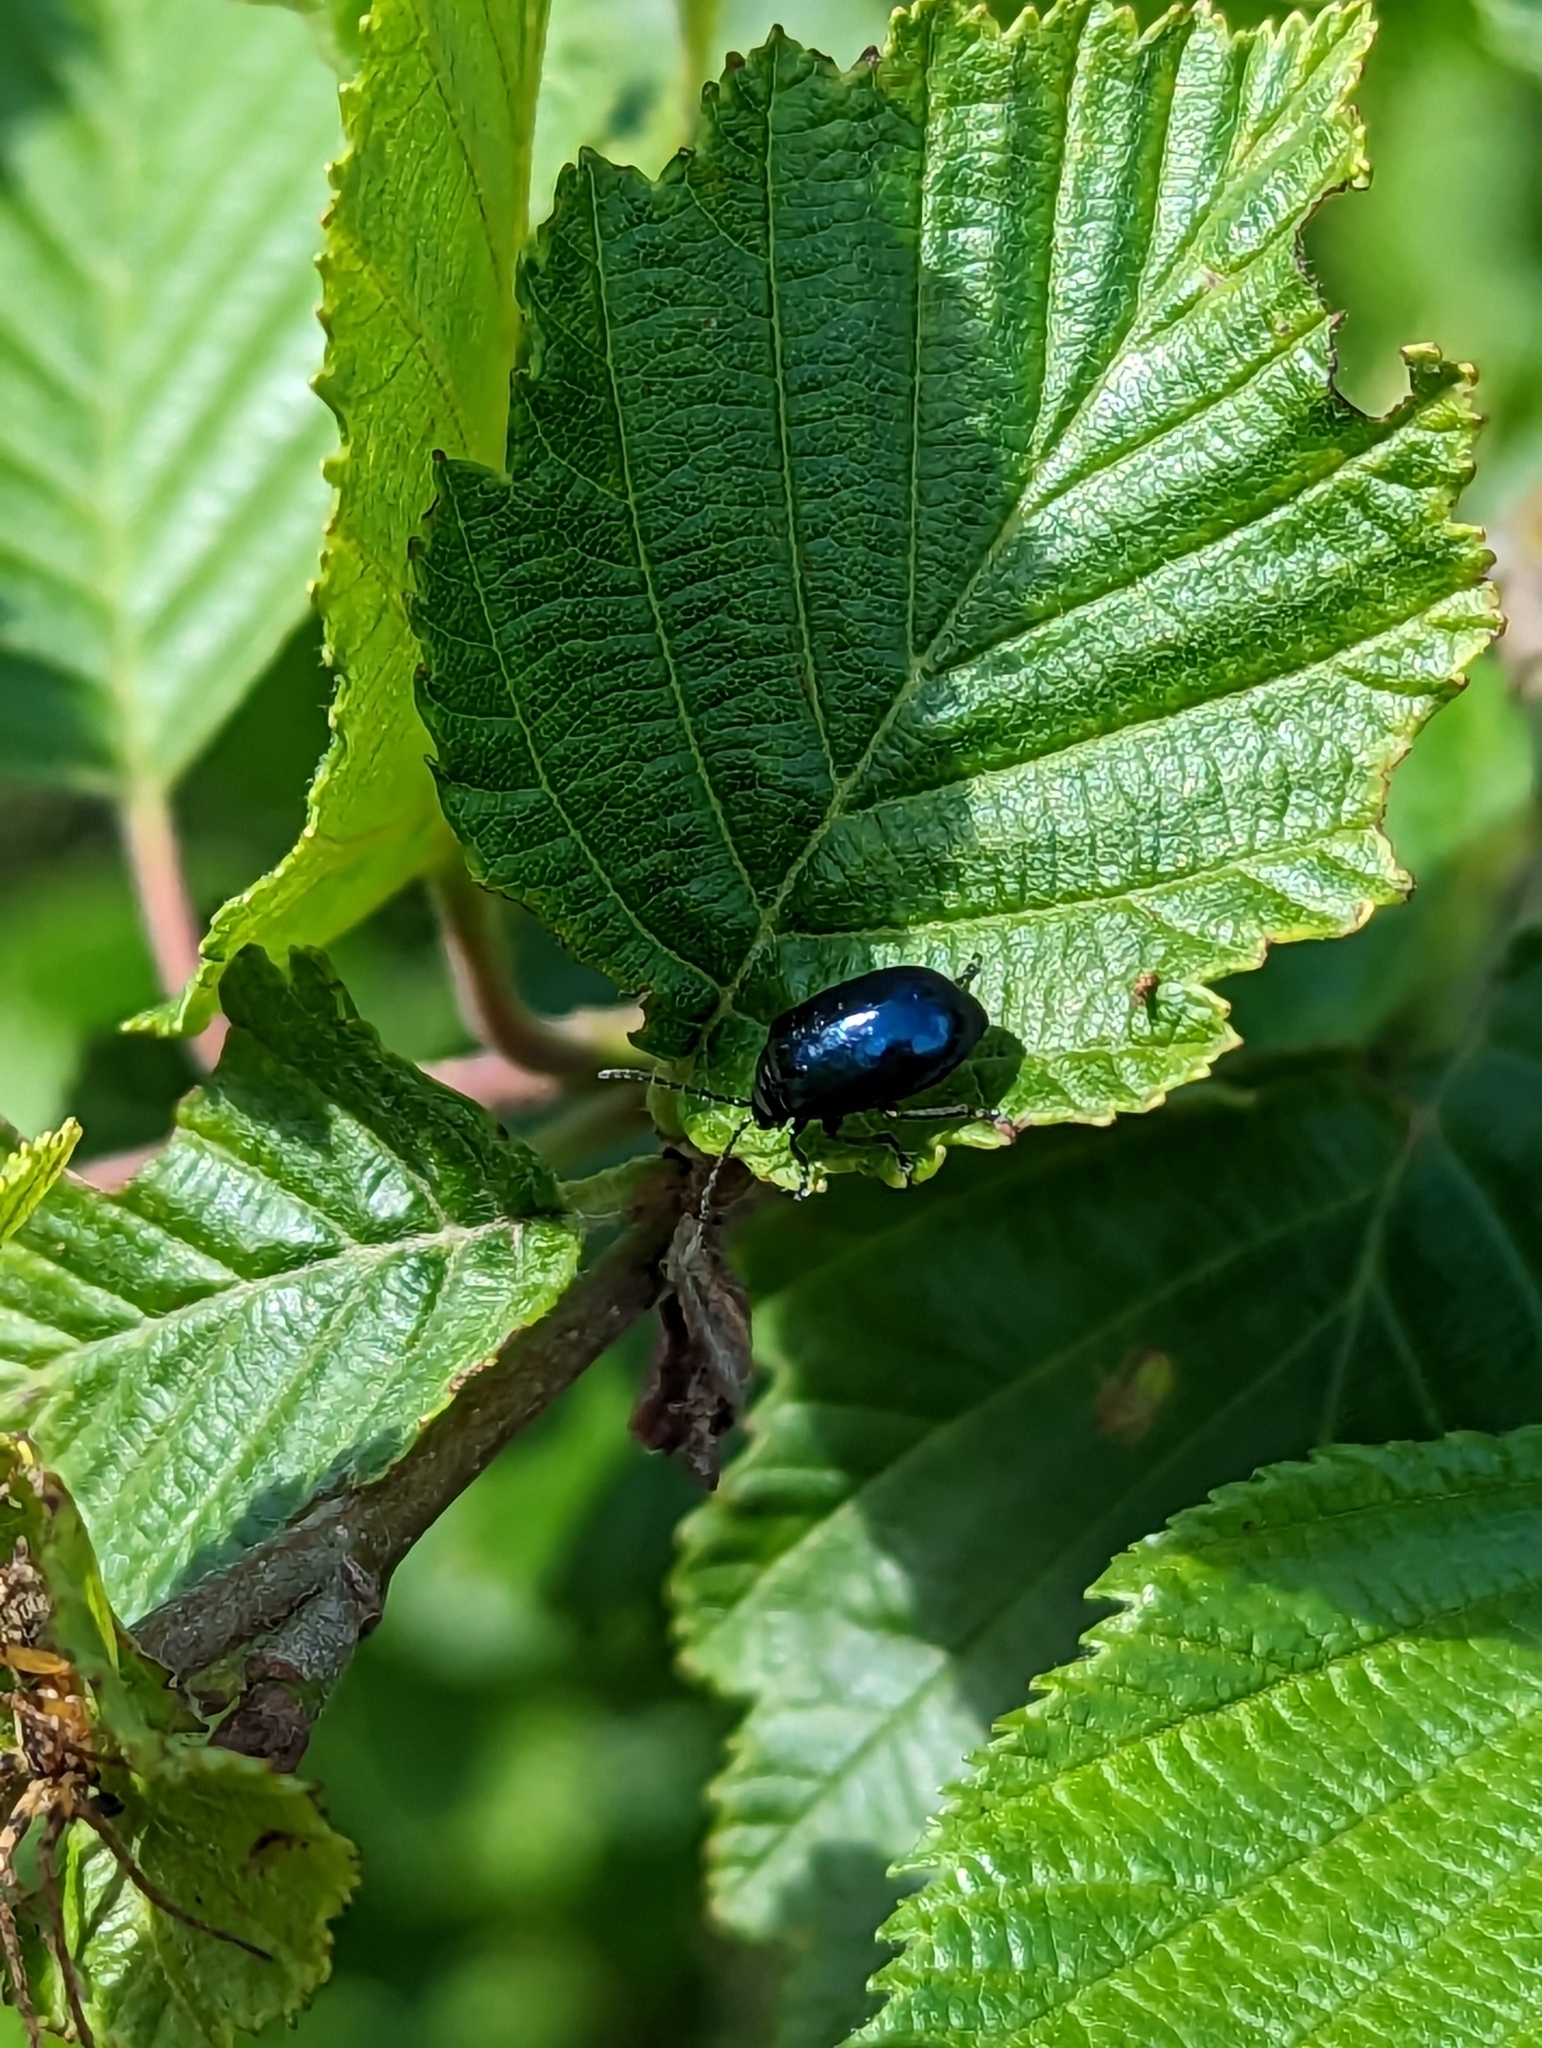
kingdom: Animalia
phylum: Arthropoda
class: Insecta
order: Coleoptera
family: Chrysomelidae
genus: Agelastica
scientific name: Agelastica alni
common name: Alder leaf beetle
